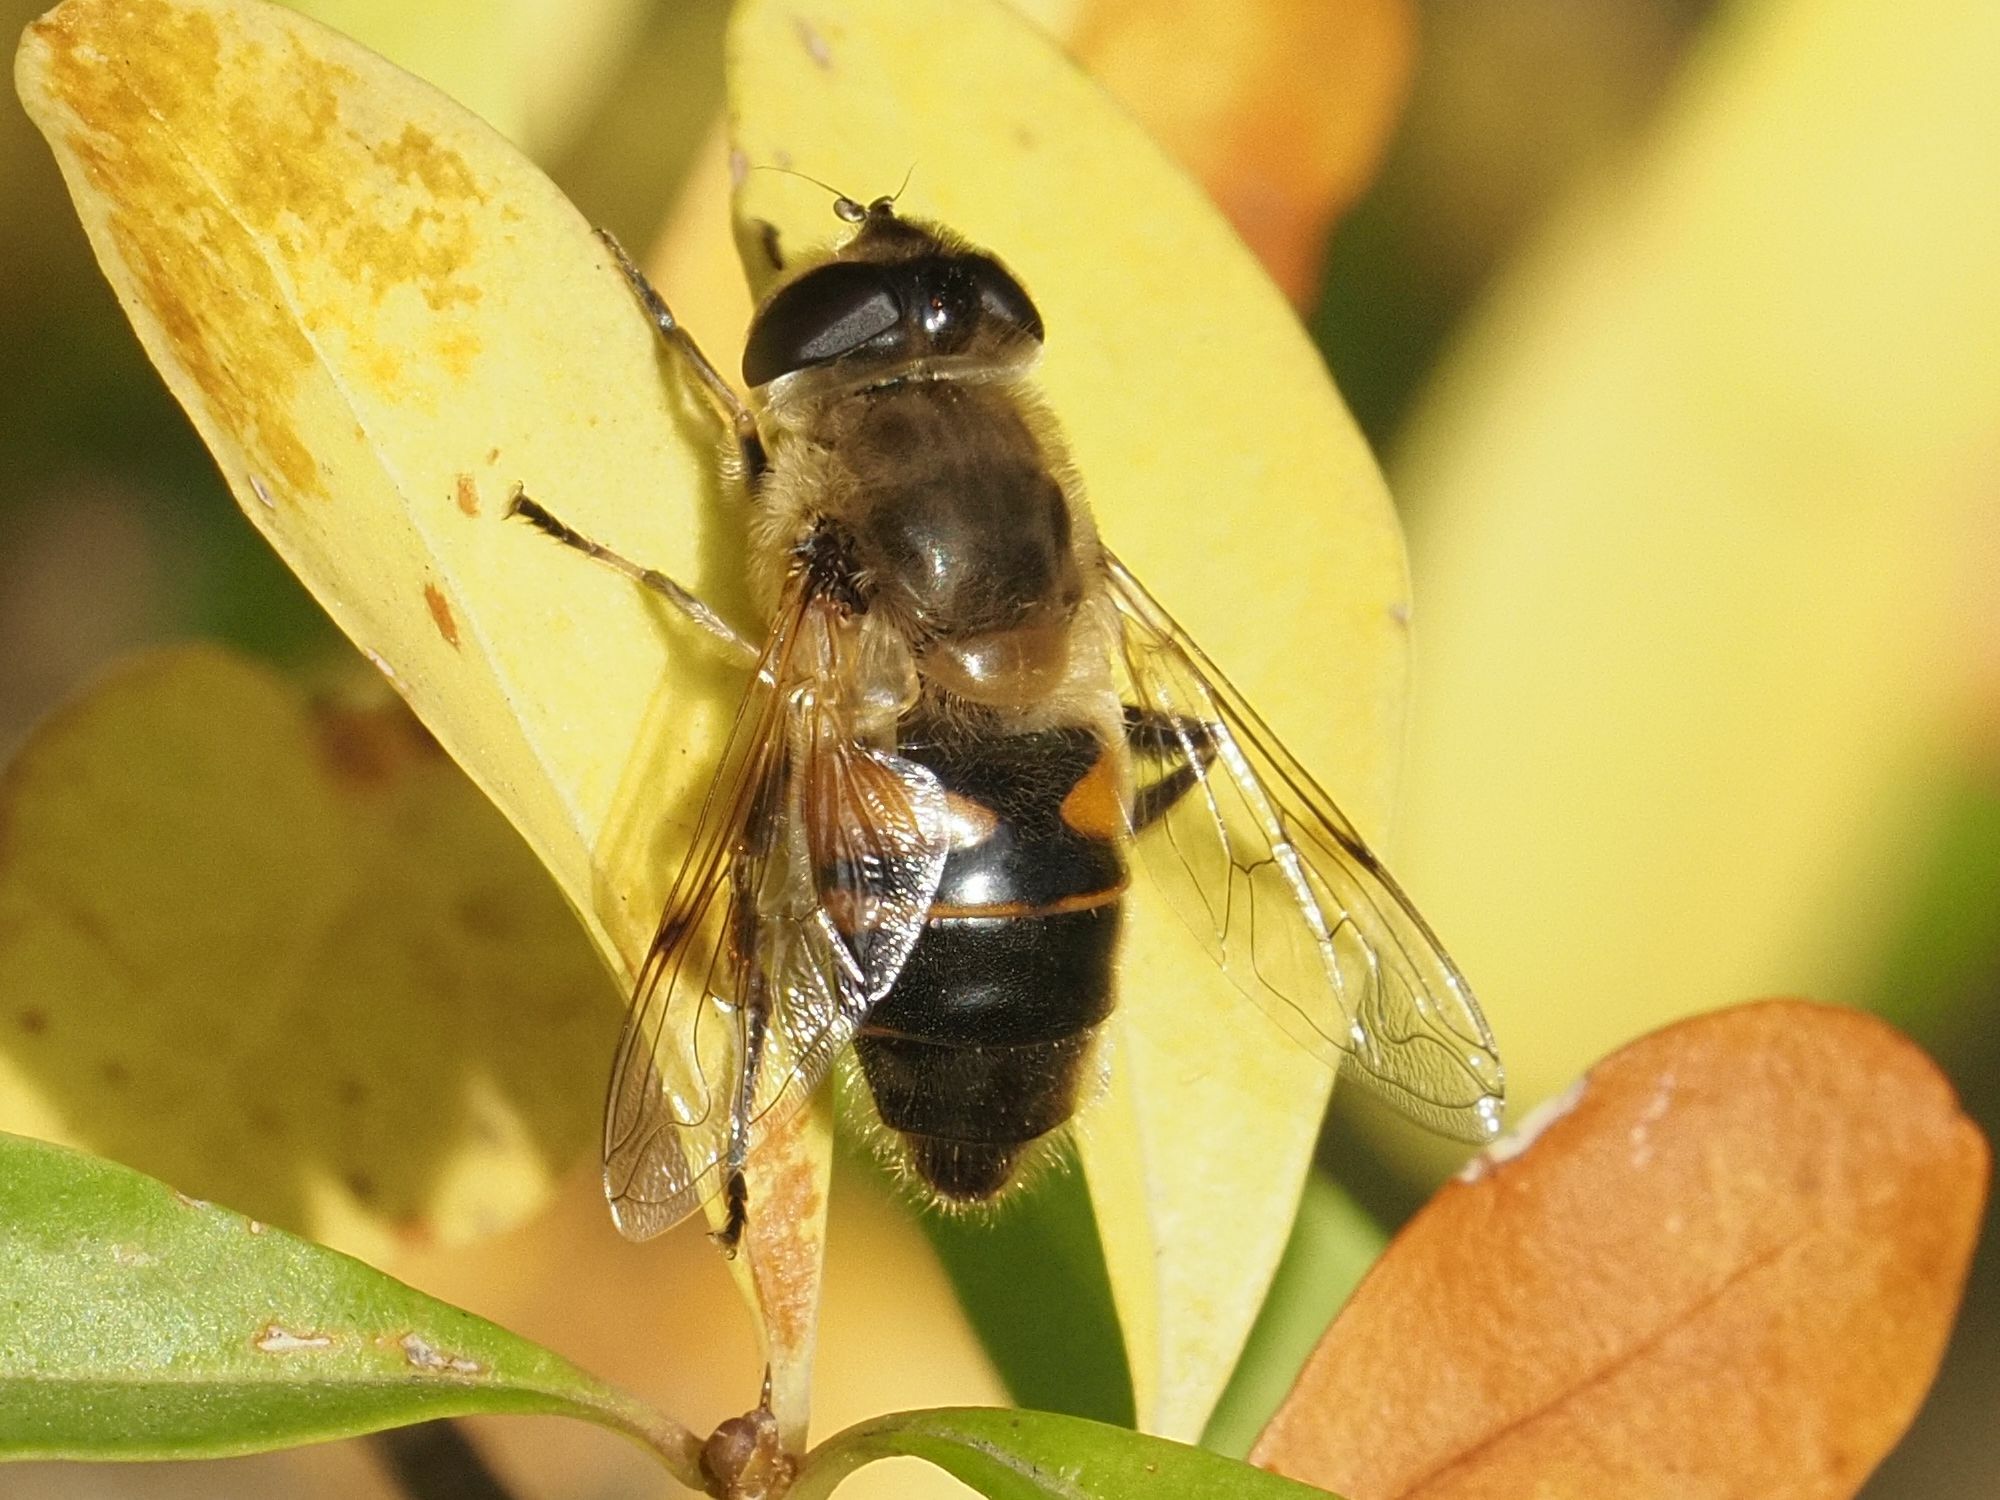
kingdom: Animalia
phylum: Arthropoda
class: Insecta
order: Diptera
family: Syrphidae
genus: Eristalis
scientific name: Eristalis tenax
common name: Drone fly
